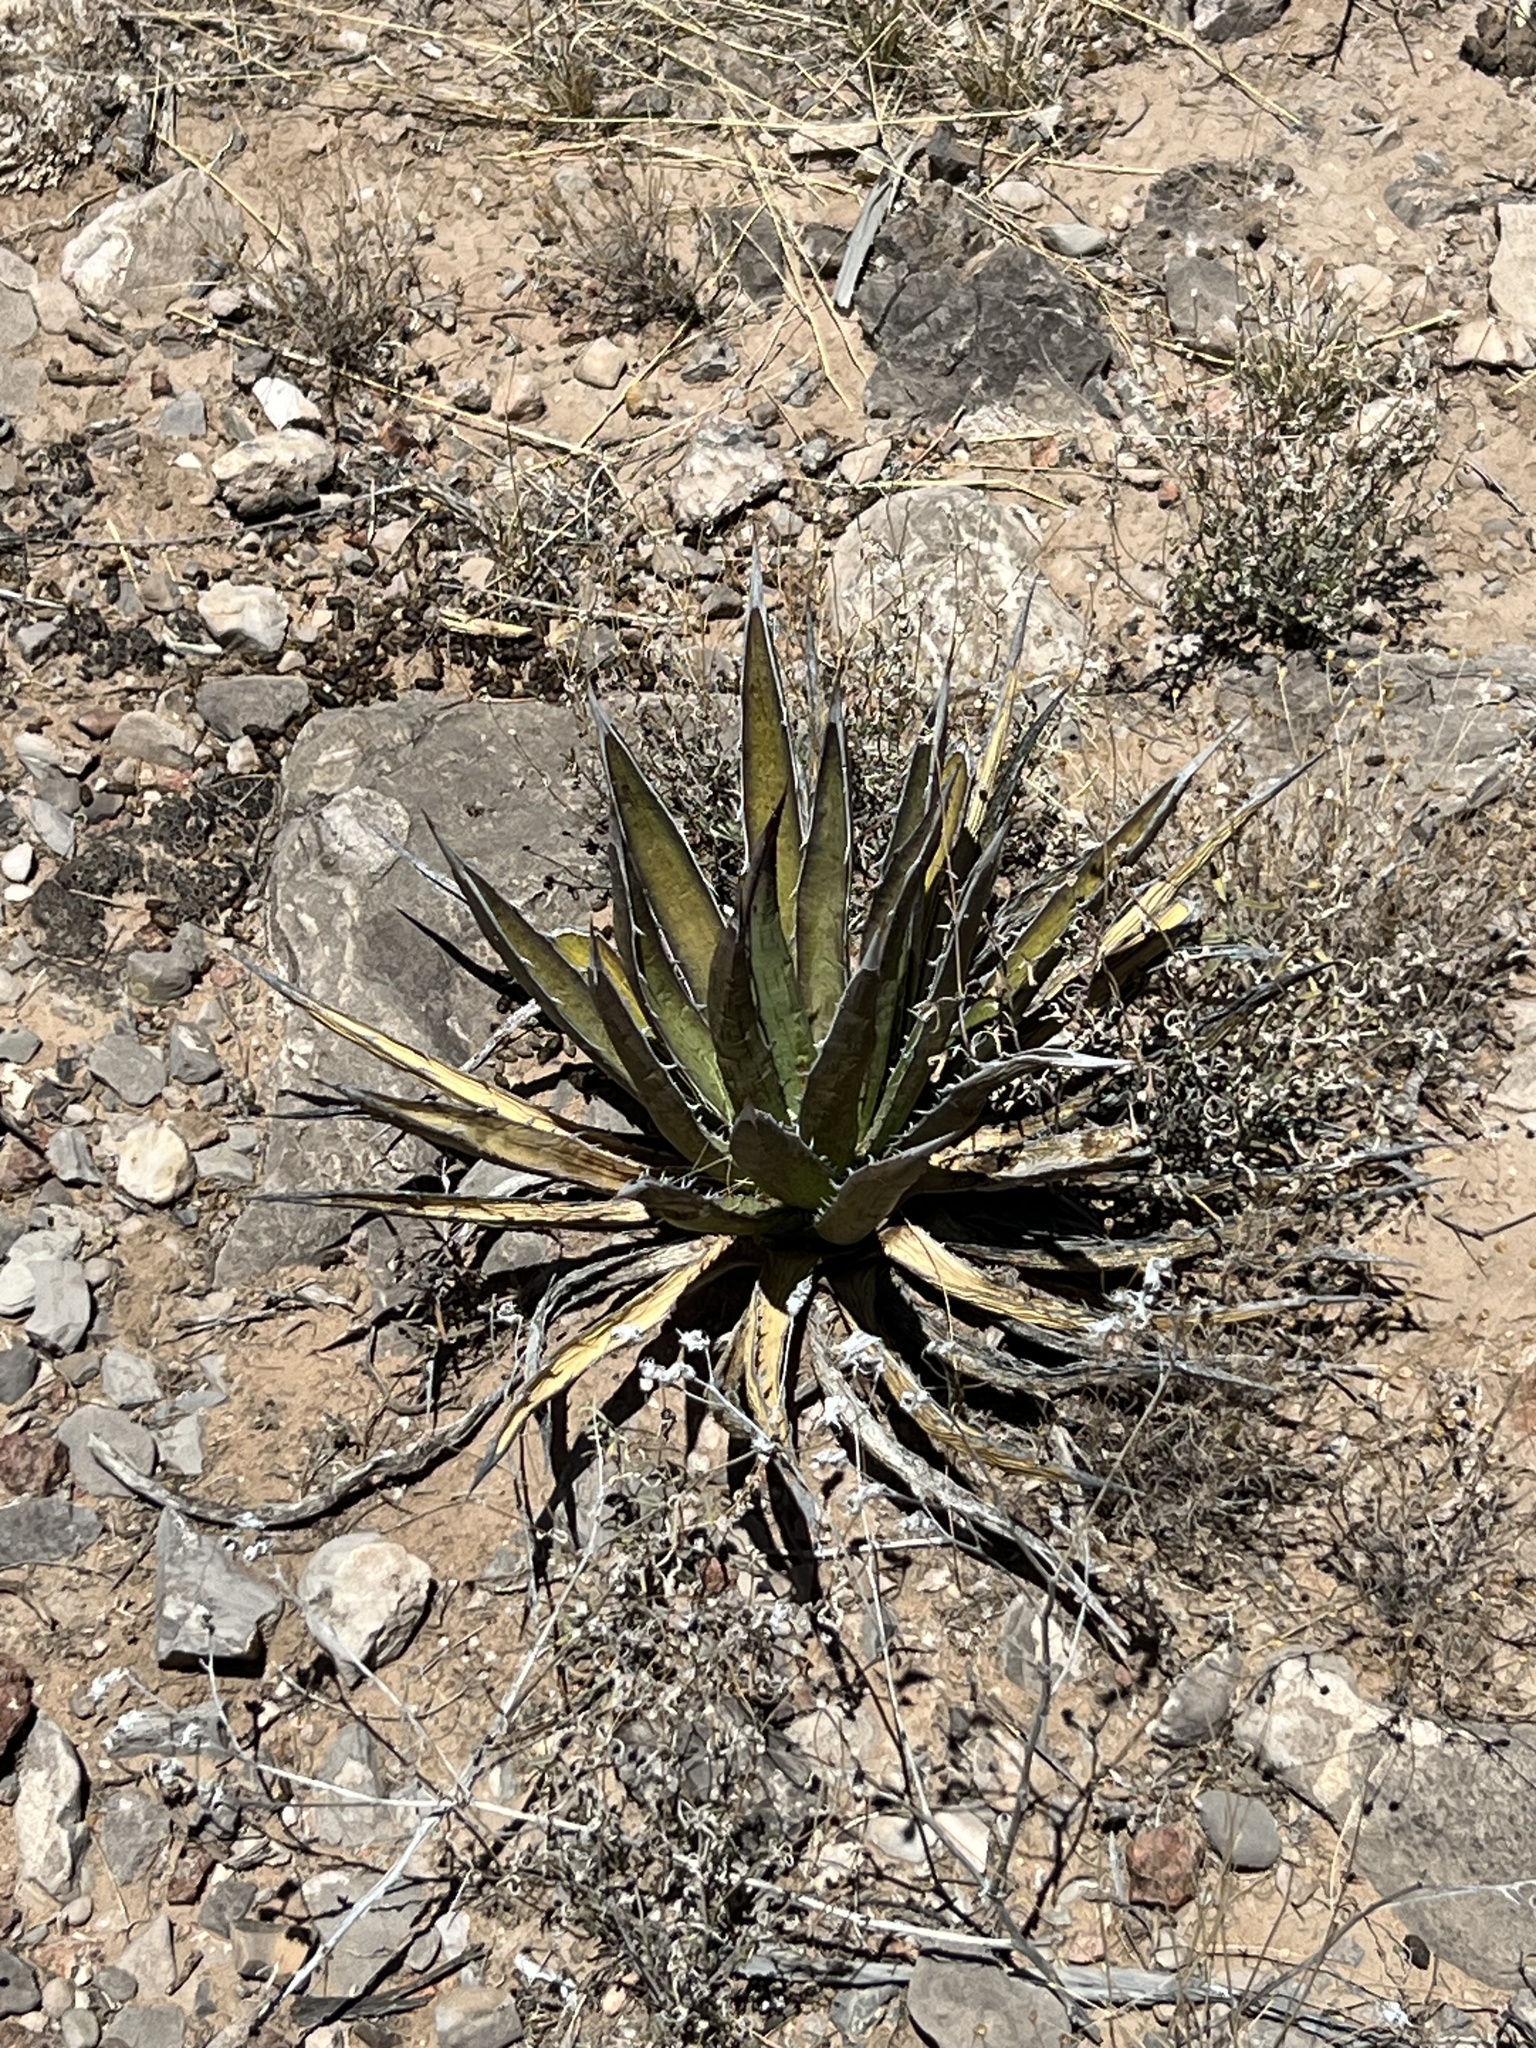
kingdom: Plantae
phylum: Tracheophyta
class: Liliopsida
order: Asparagales
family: Asparagaceae
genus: Agave
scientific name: Agave lechuguilla
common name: Lecheguilla agave
